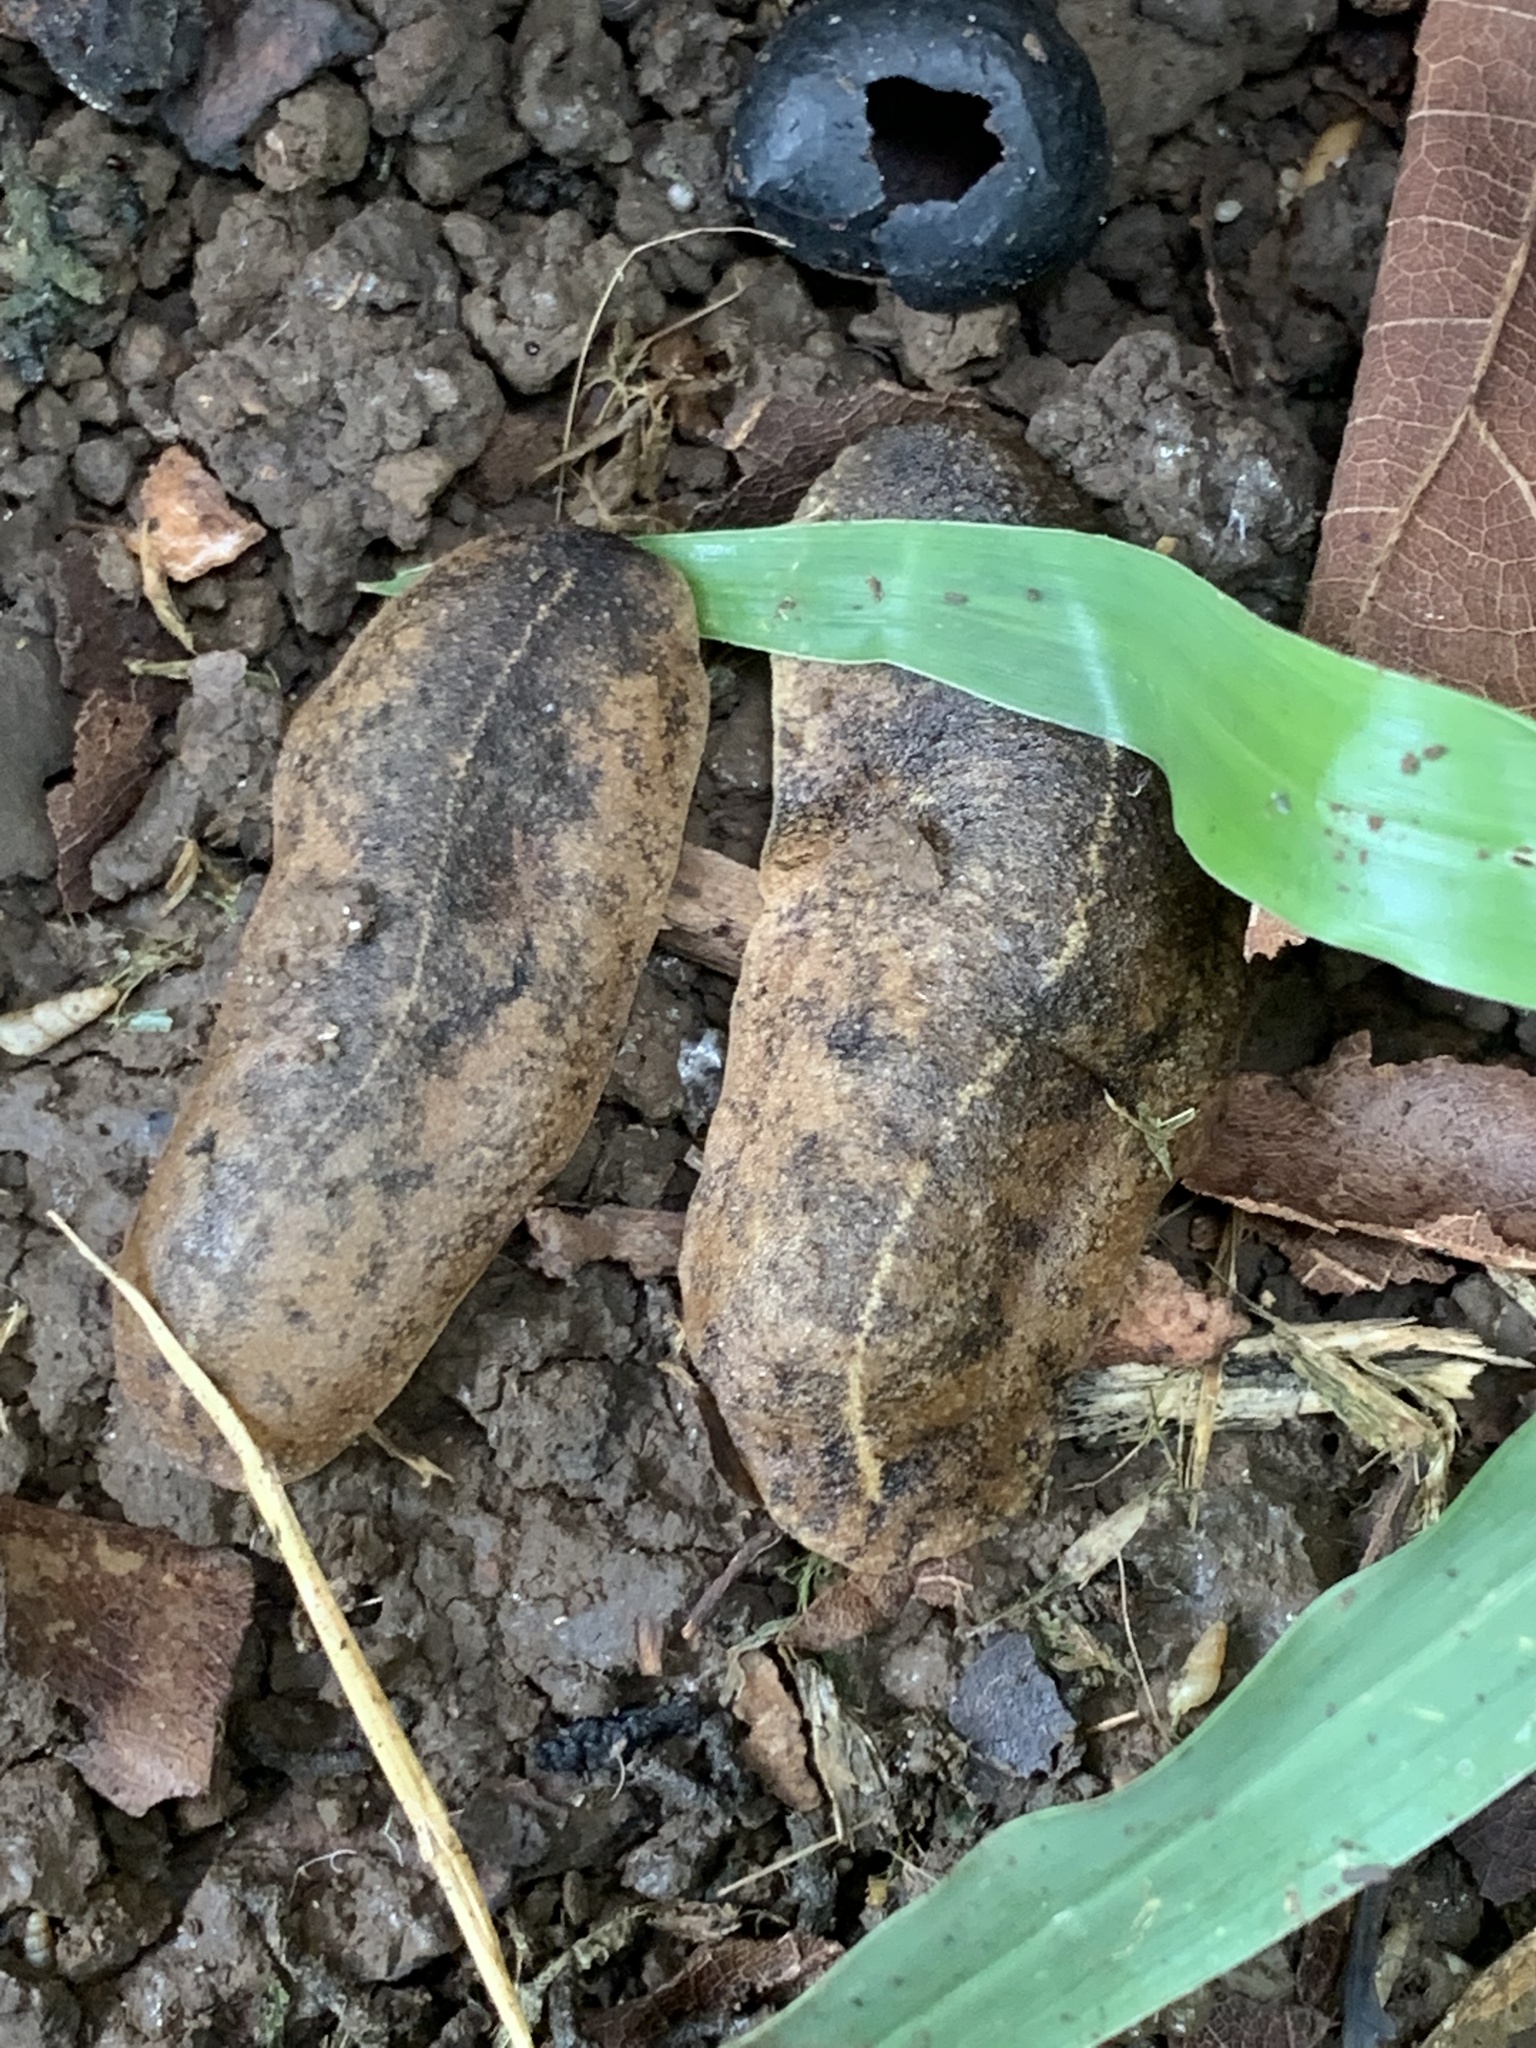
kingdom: Animalia
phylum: Mollusca
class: Gastropoda
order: Systellommatophora
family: Veronicellidae
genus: Laevicaulis
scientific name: Laevicaulis alte
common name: Tropical leatherleaf
